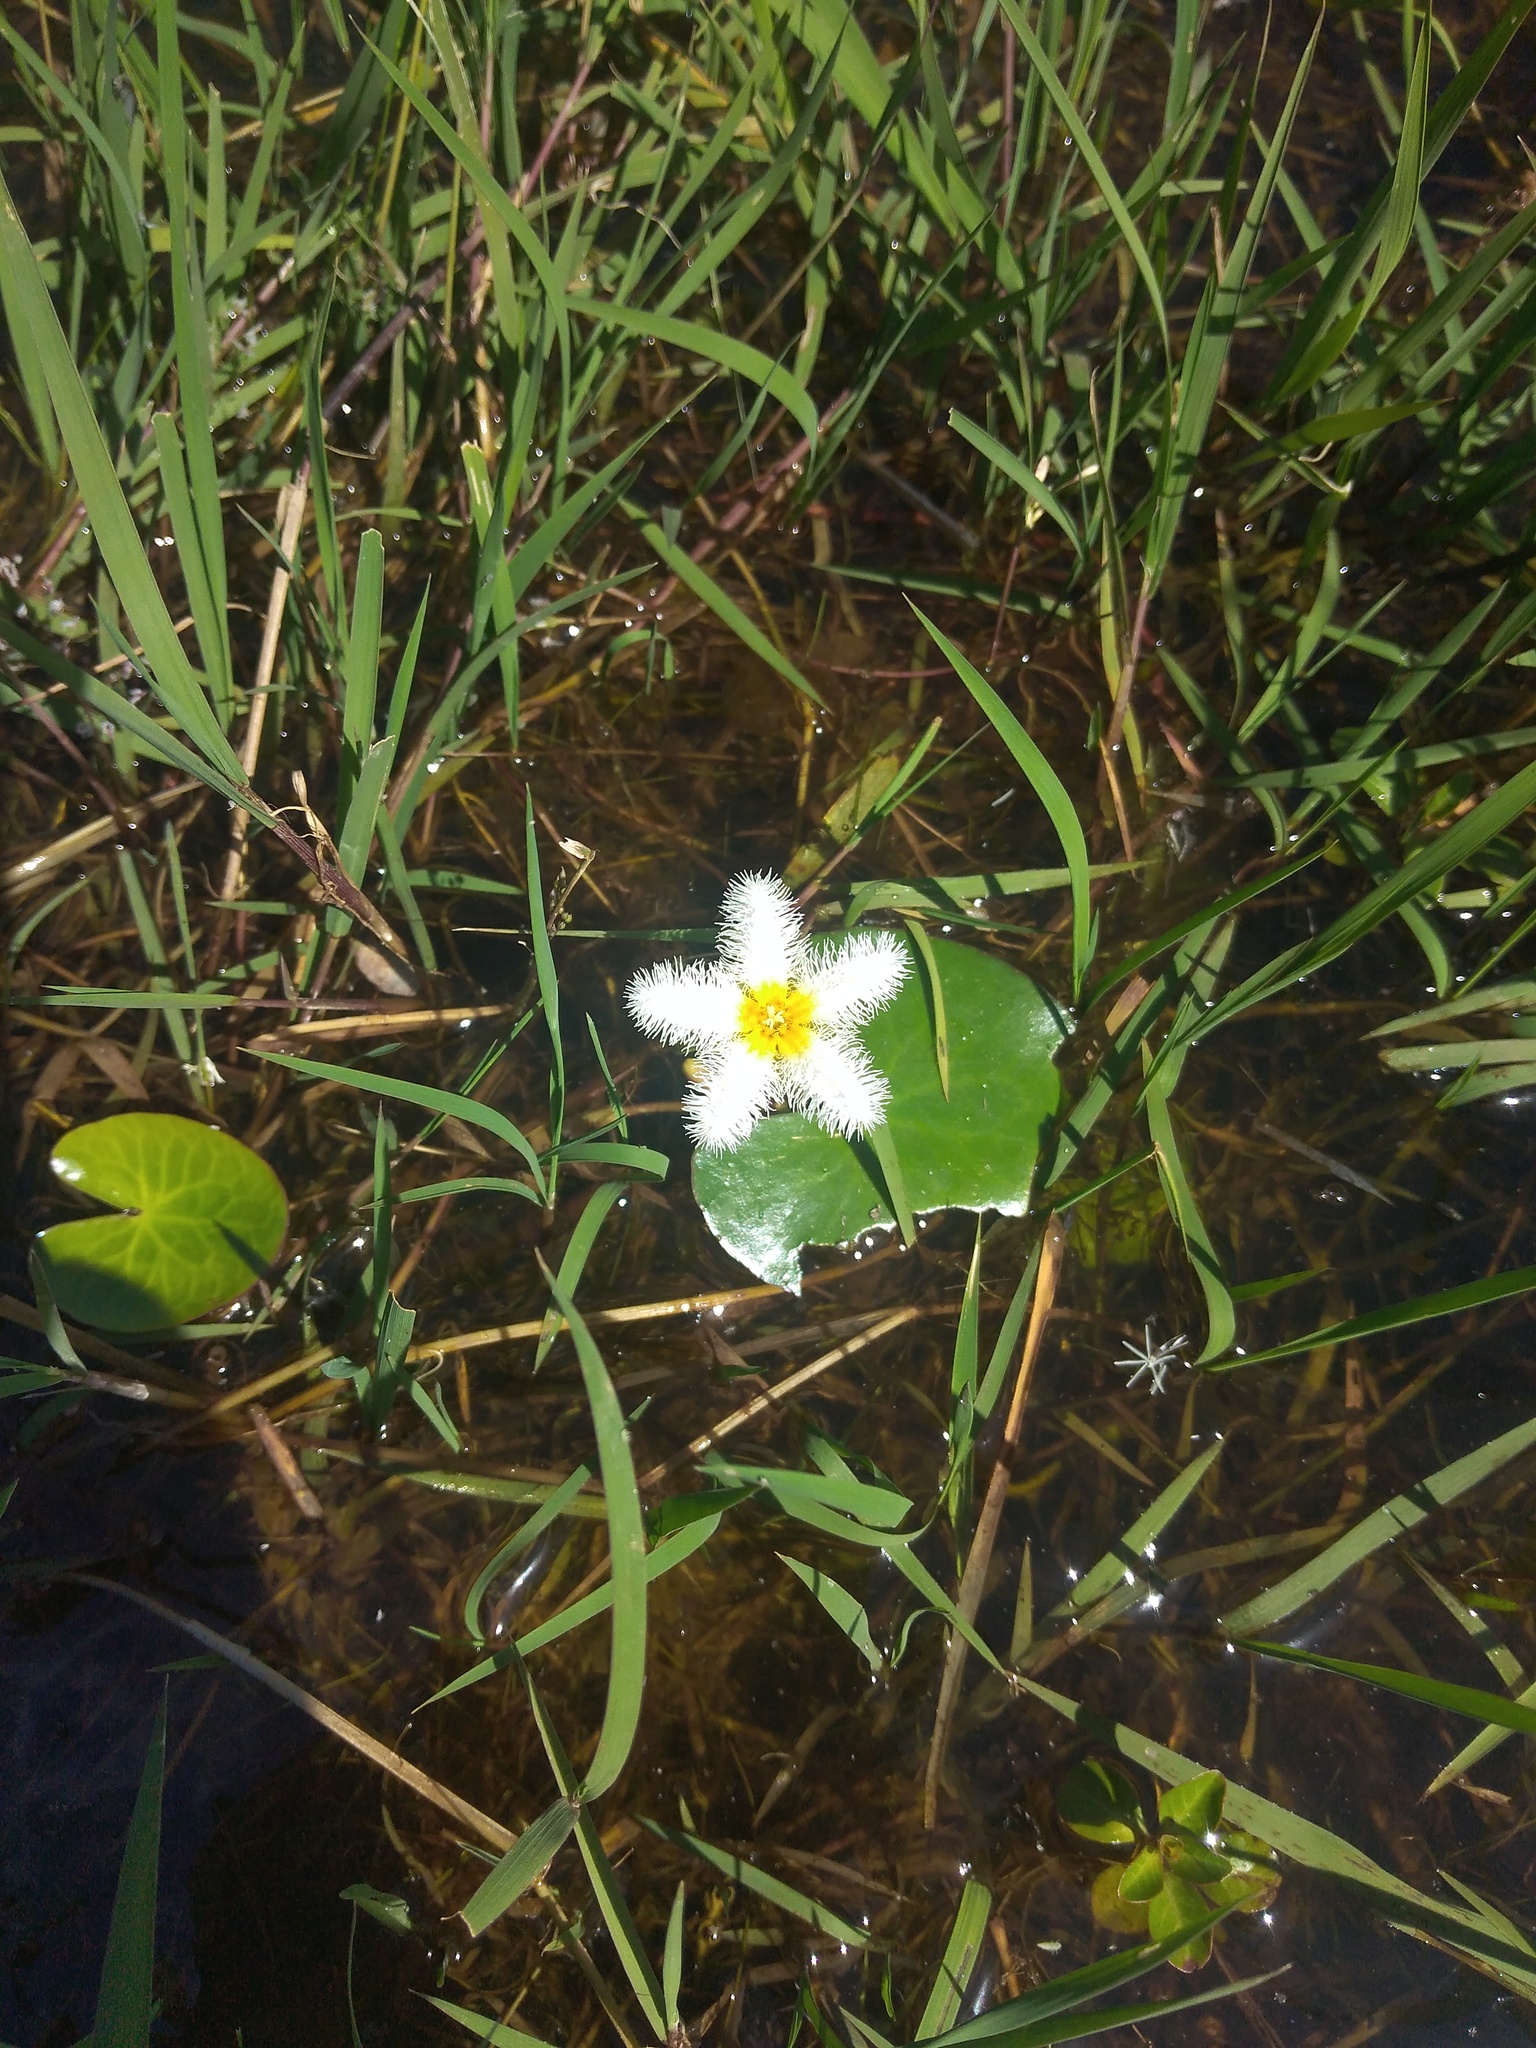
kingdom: Plantae
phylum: Tracheophyta
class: Magnoliopsida
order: Asterales
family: Menyanthaceae
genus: Nymphoides
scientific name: Nymphoides humboldtiana
